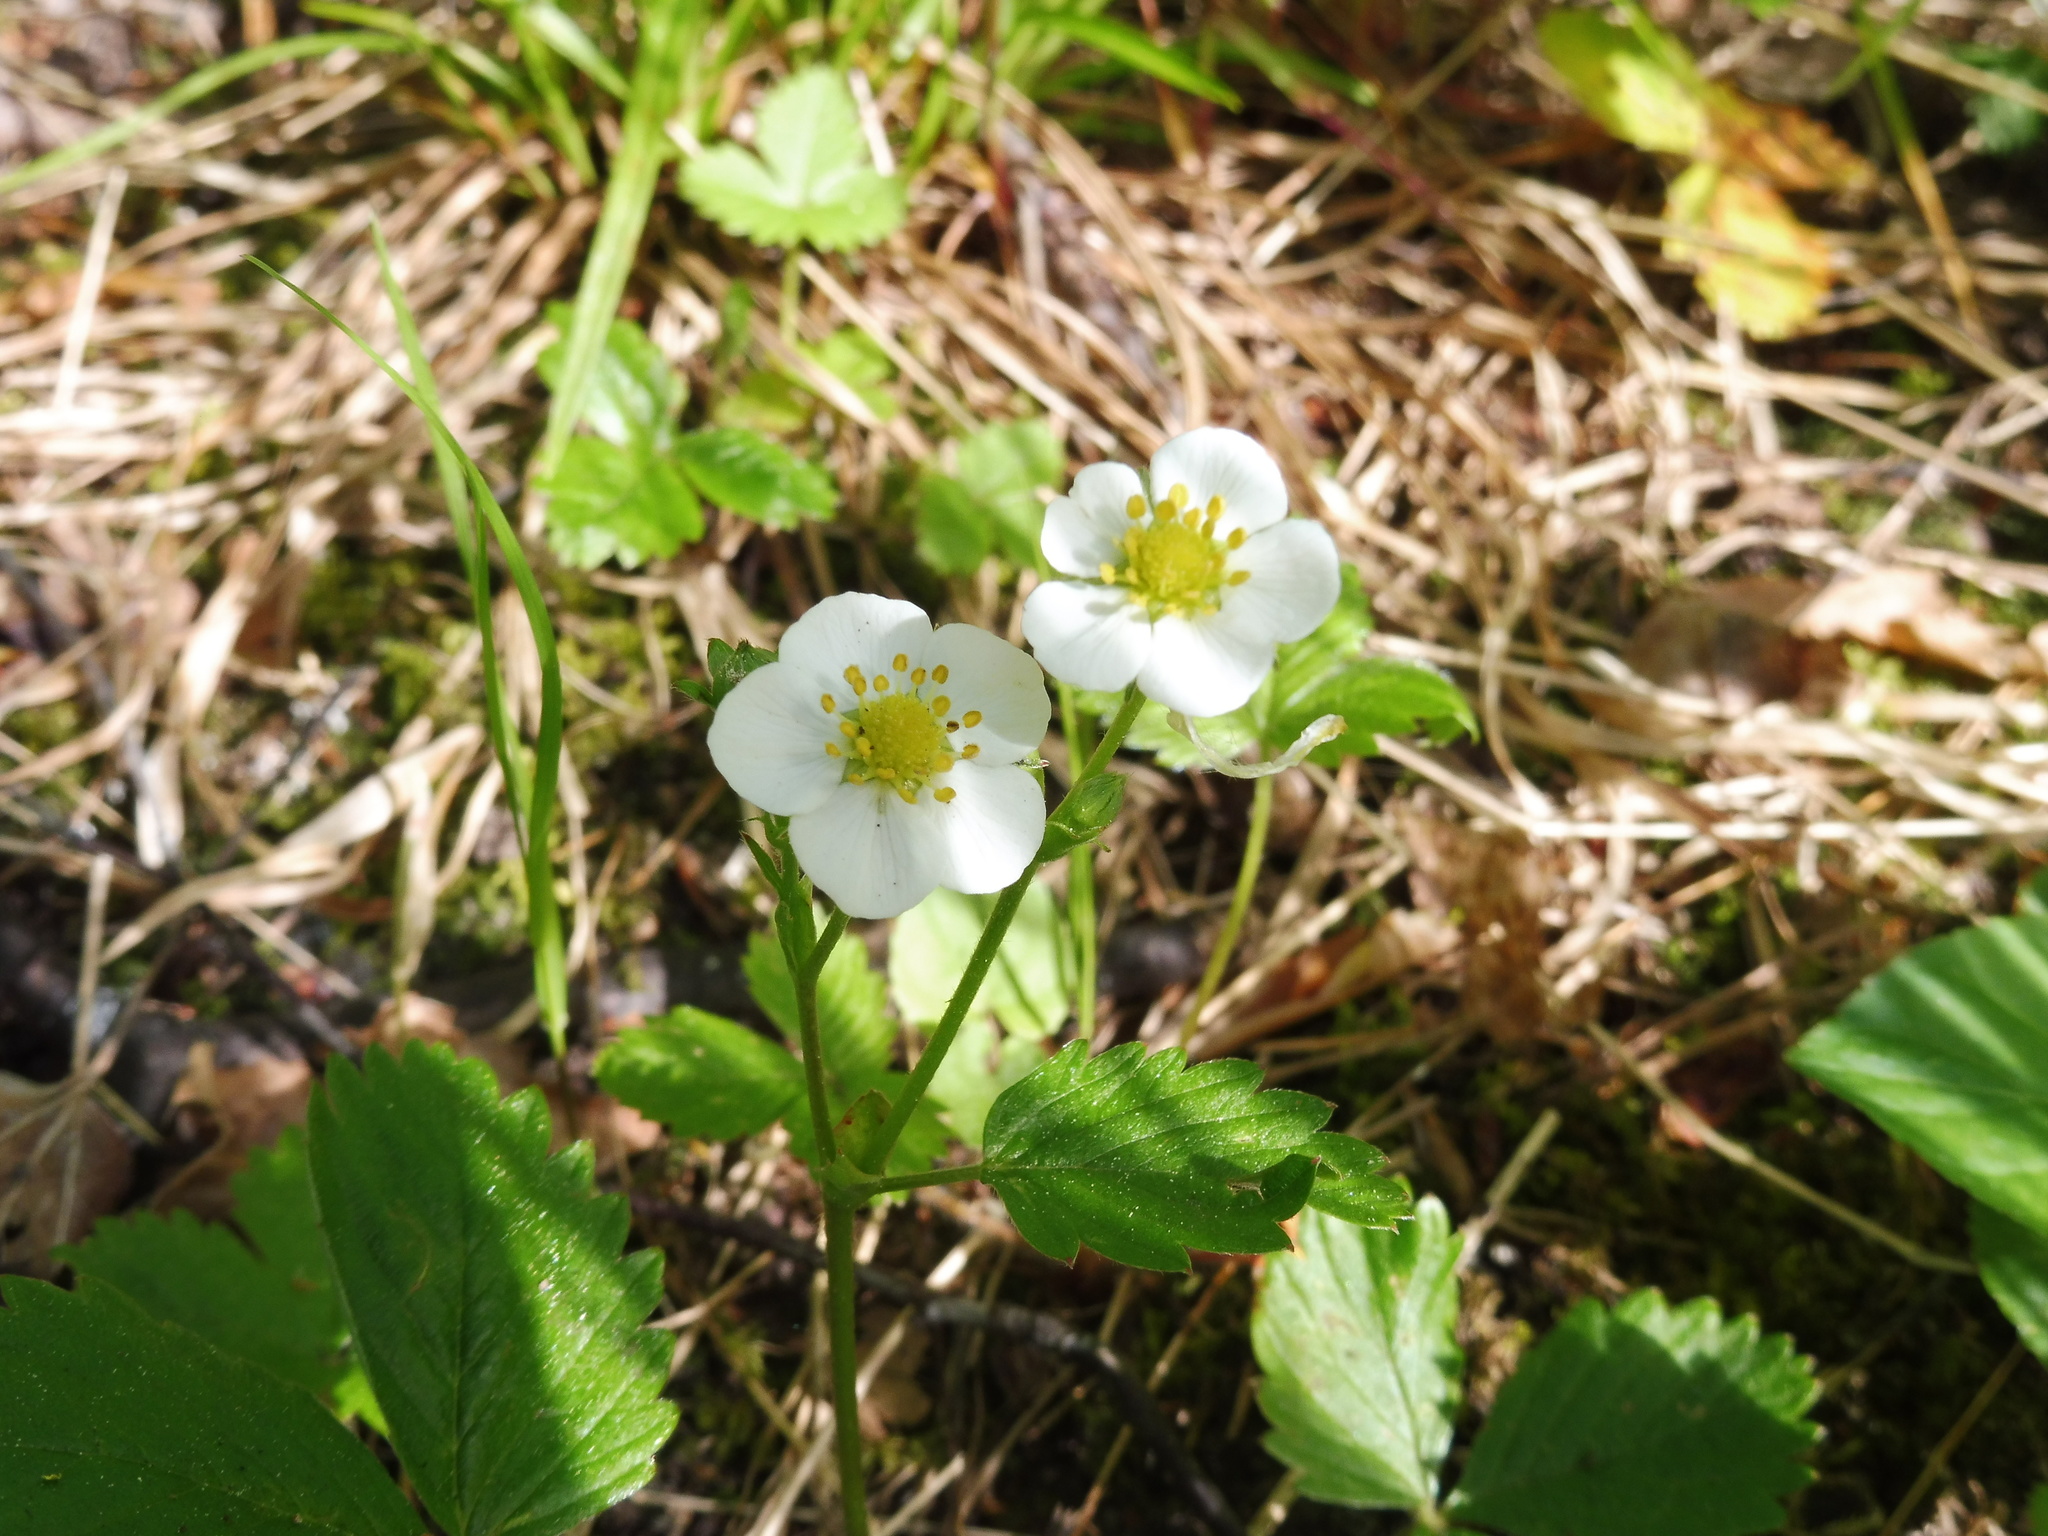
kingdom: Plantae
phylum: Tracheophyta
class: Magnoliopsida
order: Rosales
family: Rosaceae
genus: Fragaria
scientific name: Fragaria vesca
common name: Wild strawberry
